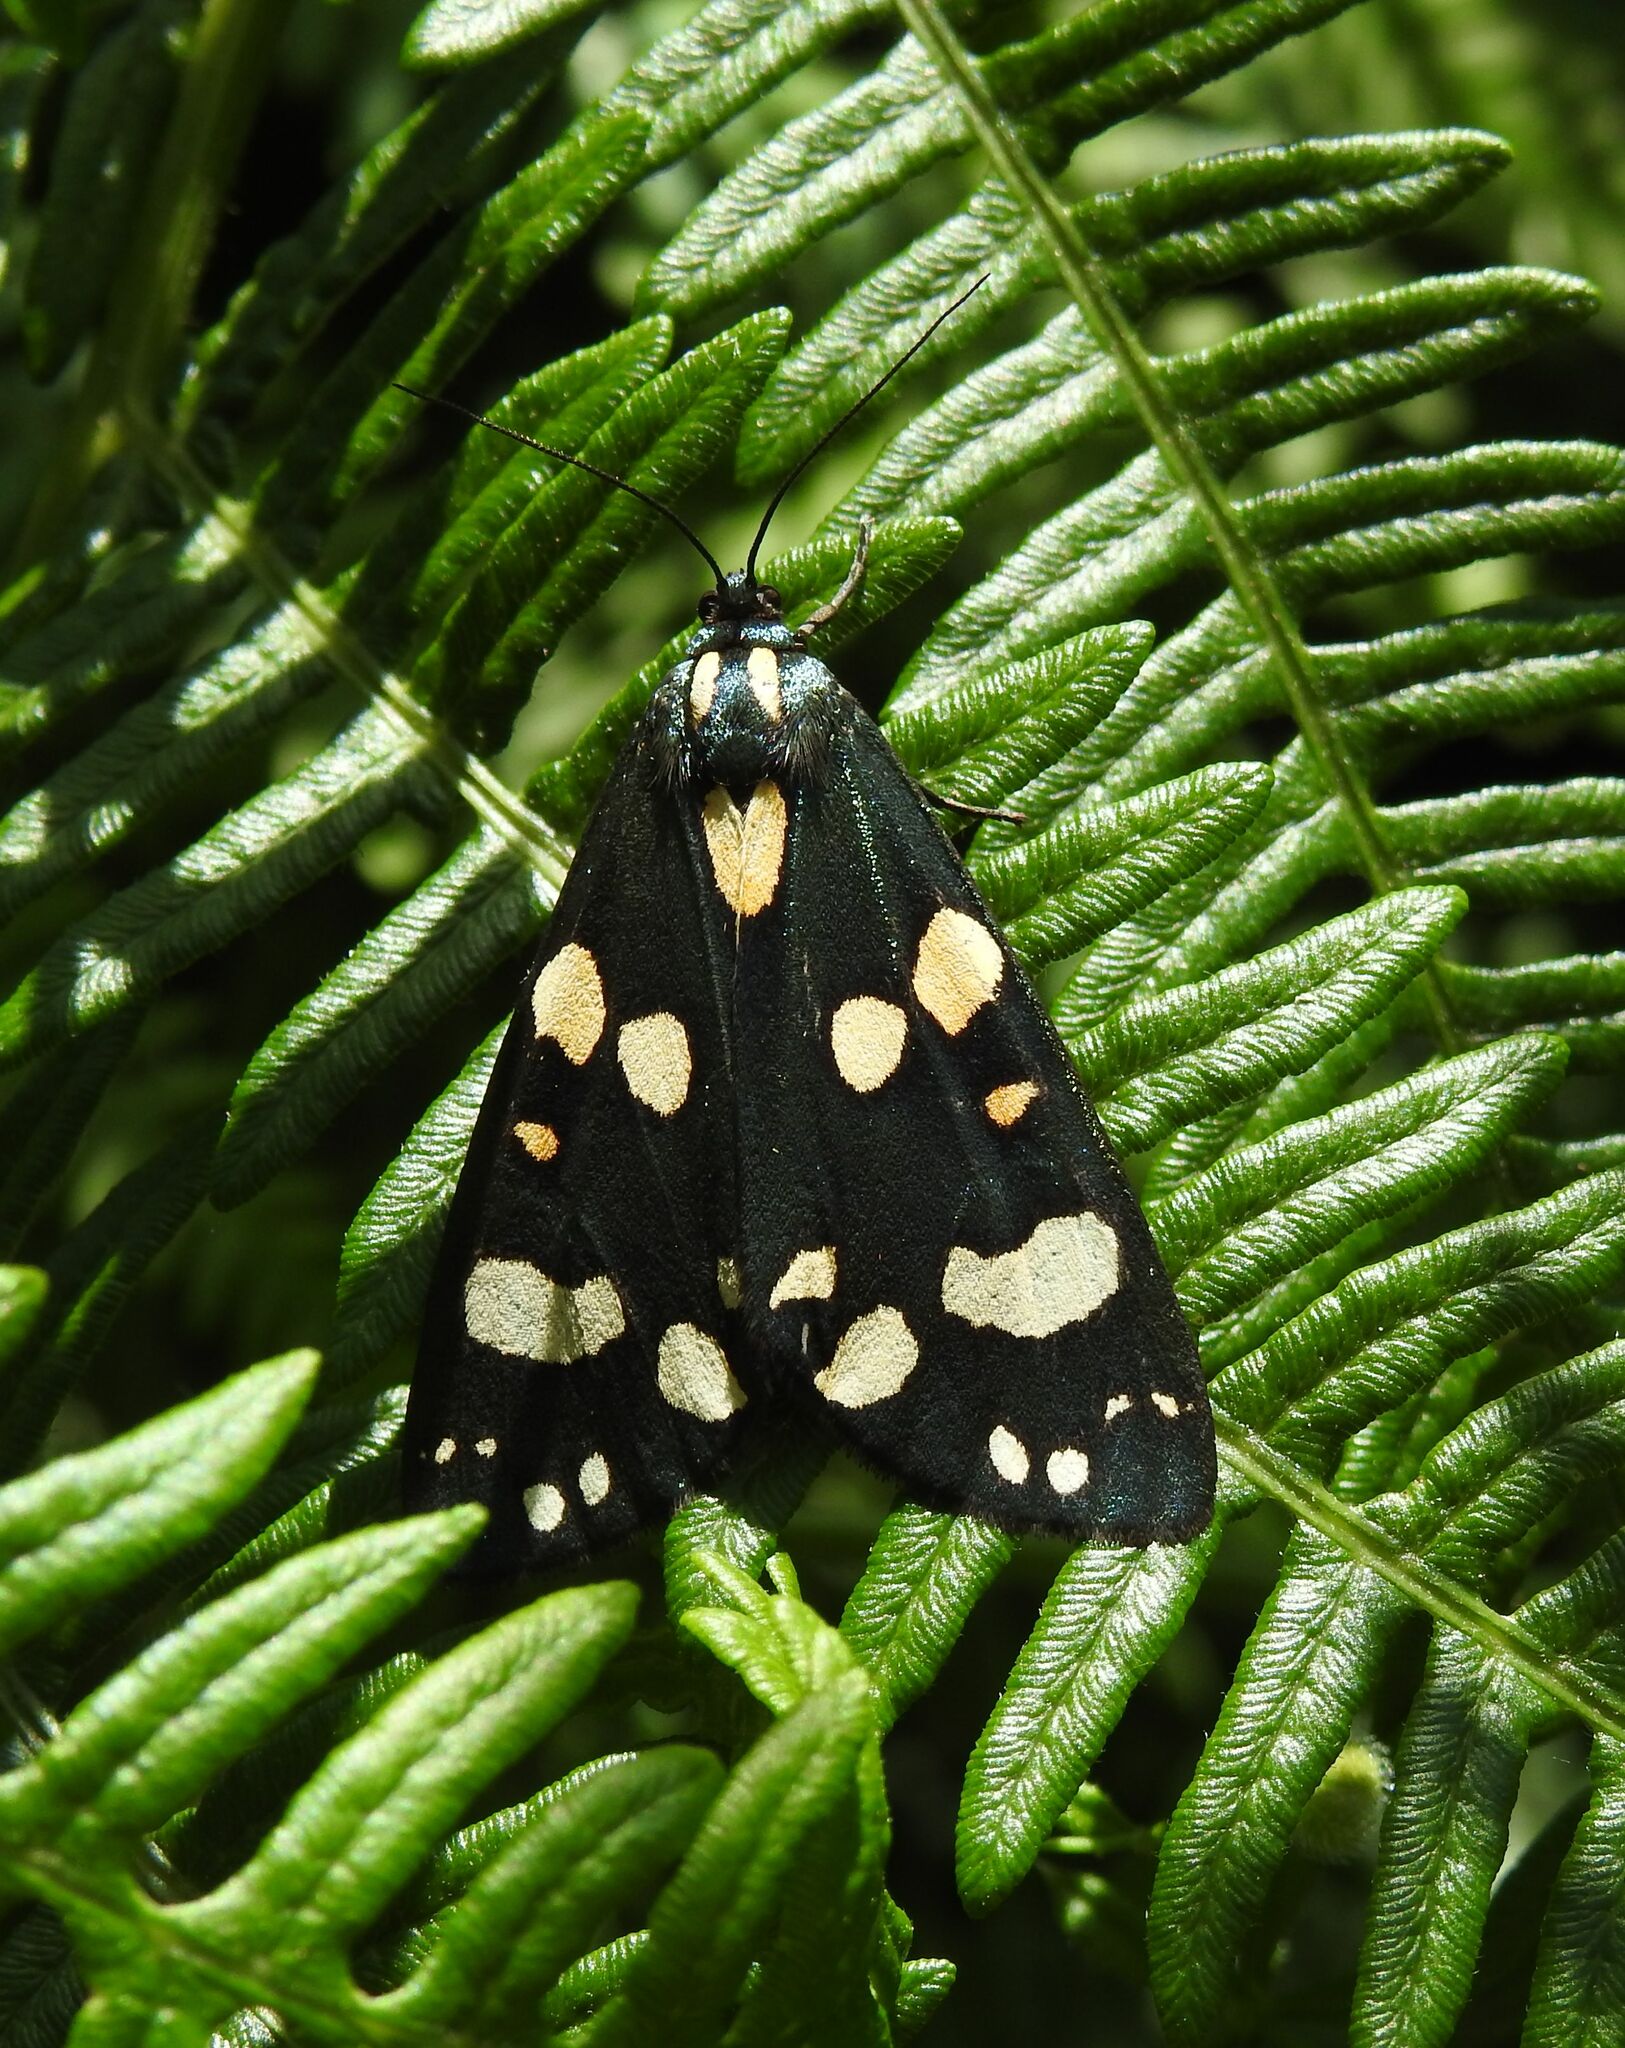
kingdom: Animalia
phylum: Arthropoda
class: Insecta
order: Lepidoptera
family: Erebidae
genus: Callimorpha
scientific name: Callimorpha dominula
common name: Scarlet tiger
